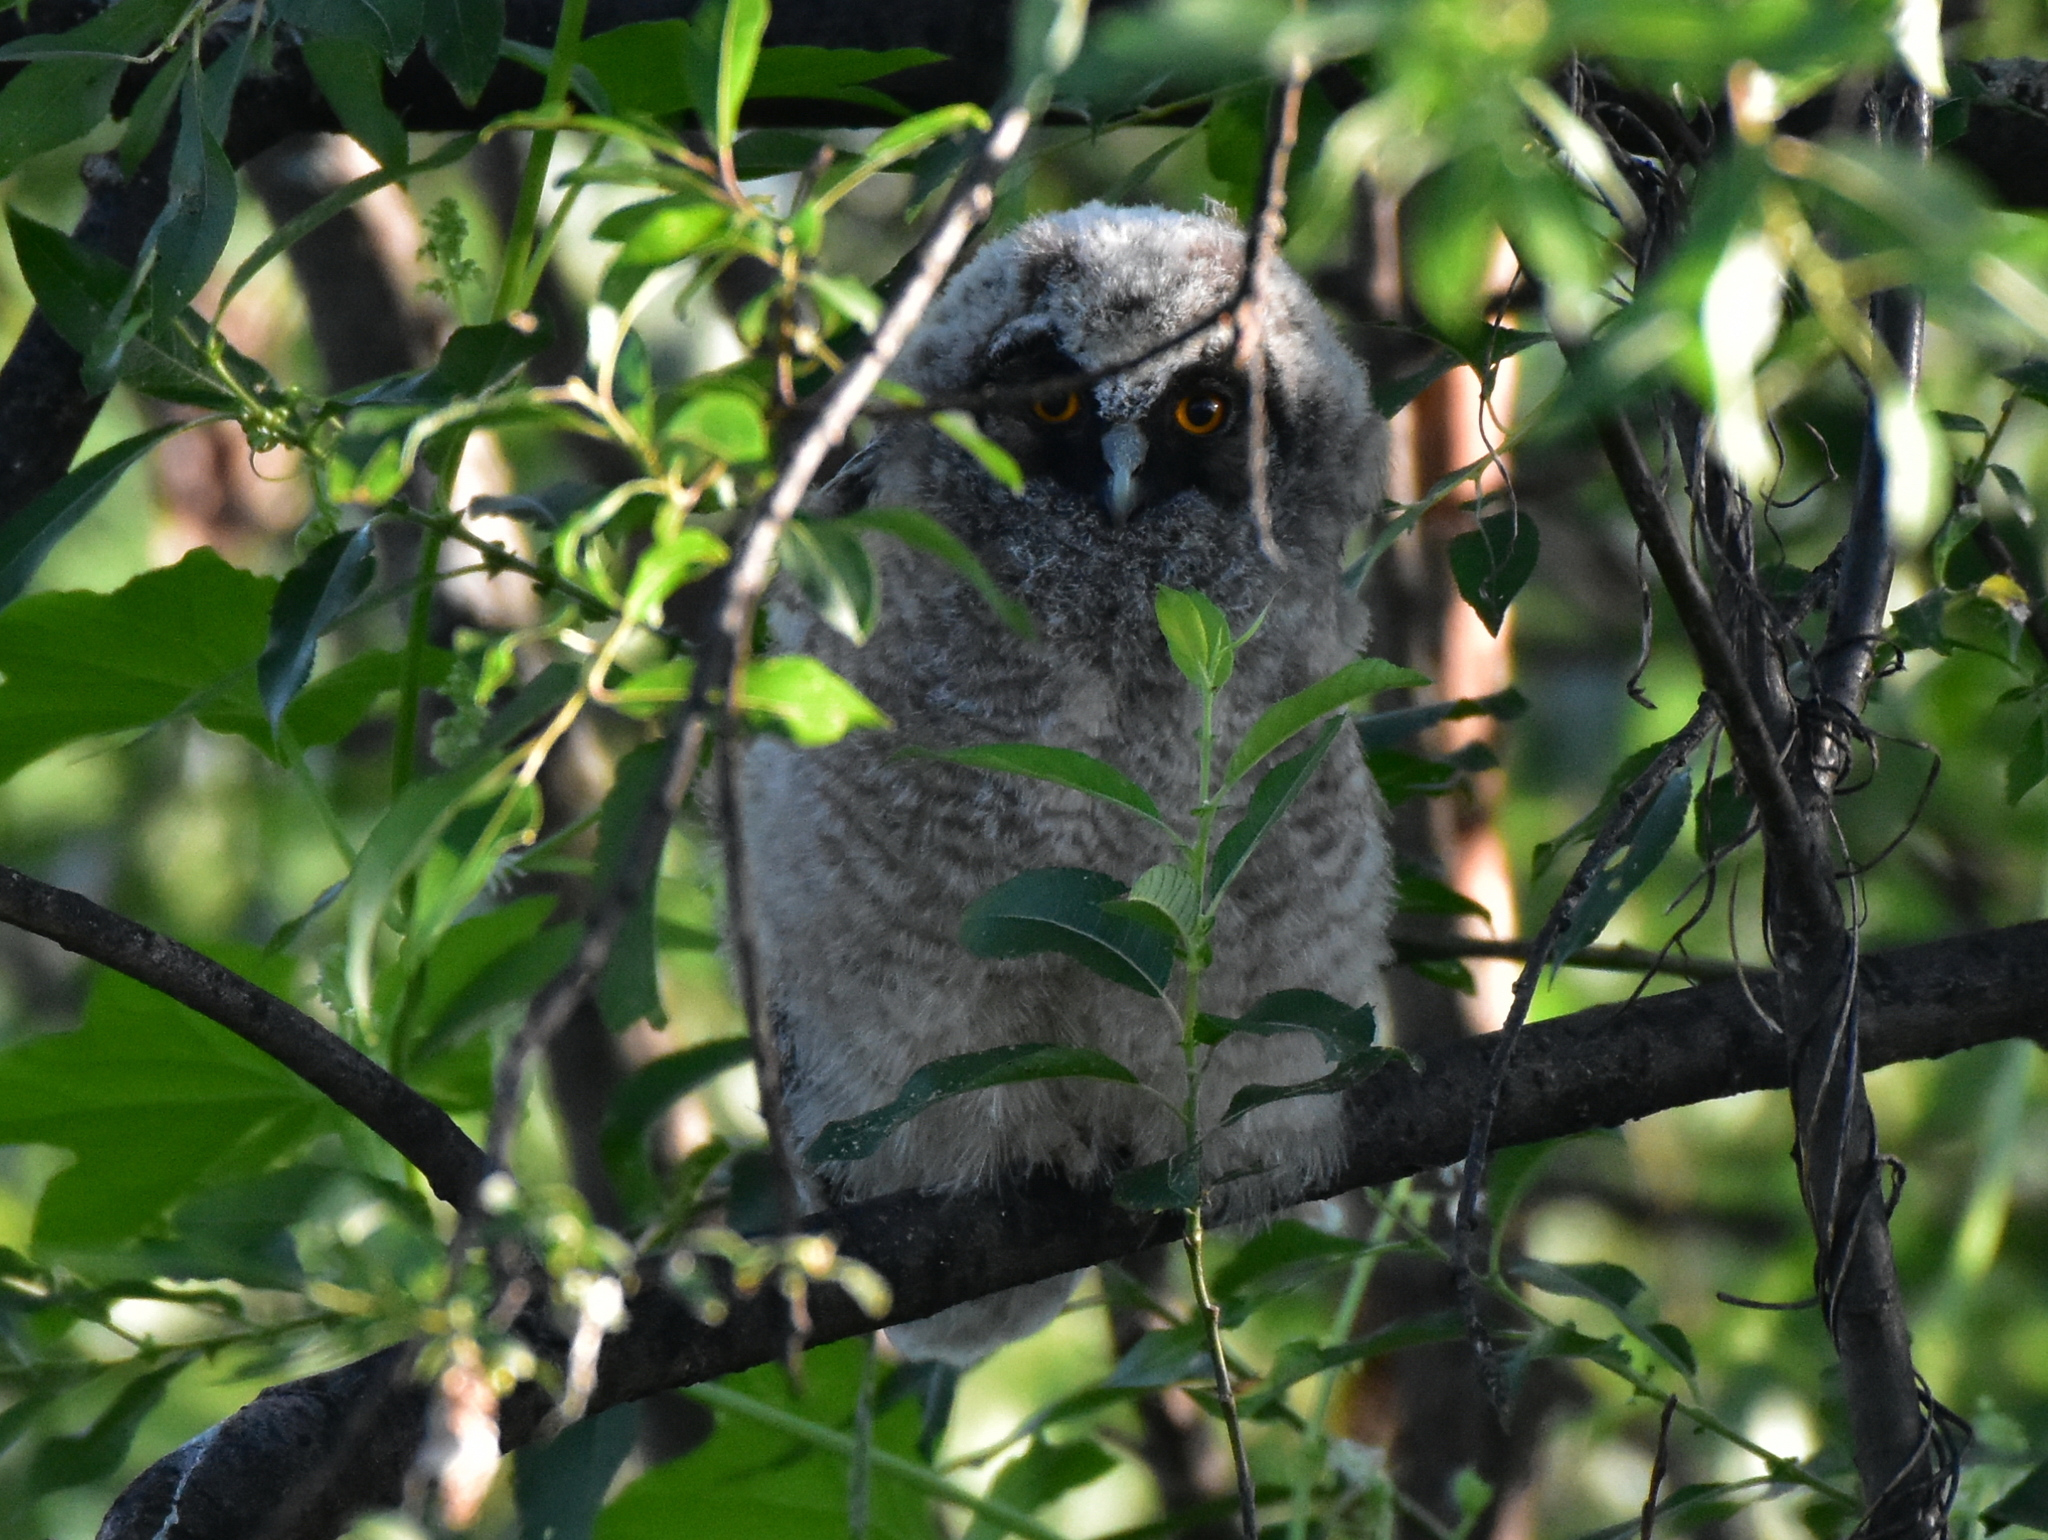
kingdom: Animalia
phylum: Chordata
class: Aves
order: Strigiformes
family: Strigidae
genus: Asio
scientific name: Asio otus
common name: Long-eared owl
